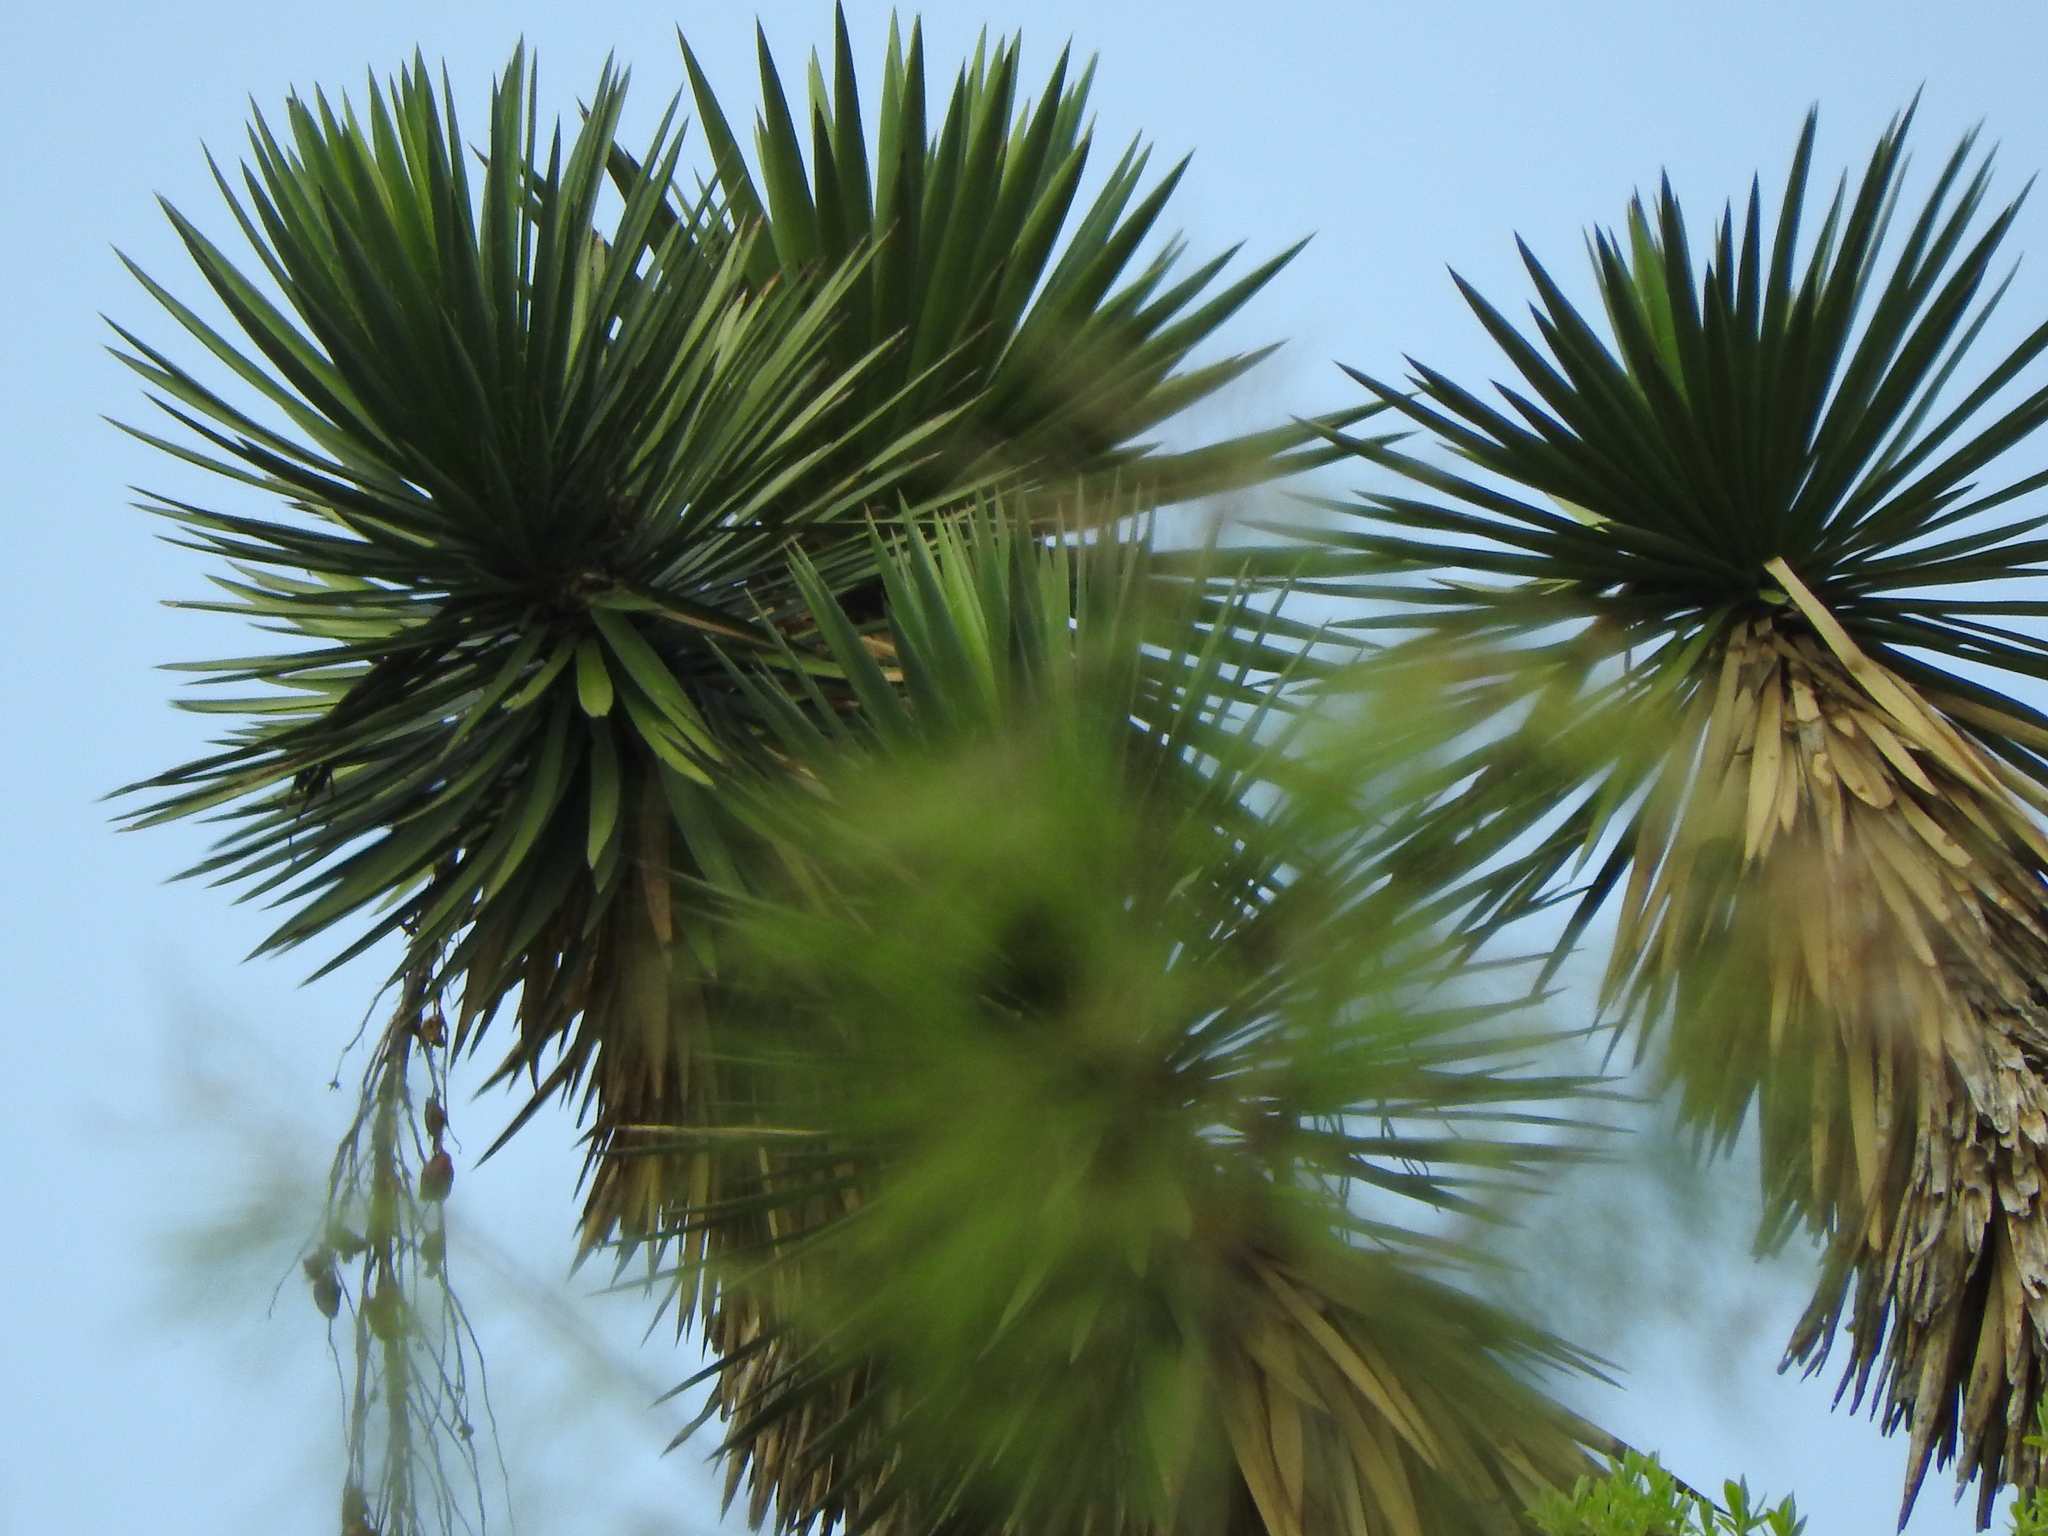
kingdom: Plantae
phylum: Tracheophyta
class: Liliopsida
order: Asparagales
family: Asparagaceae
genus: Yucca
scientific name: Yucca filifera
